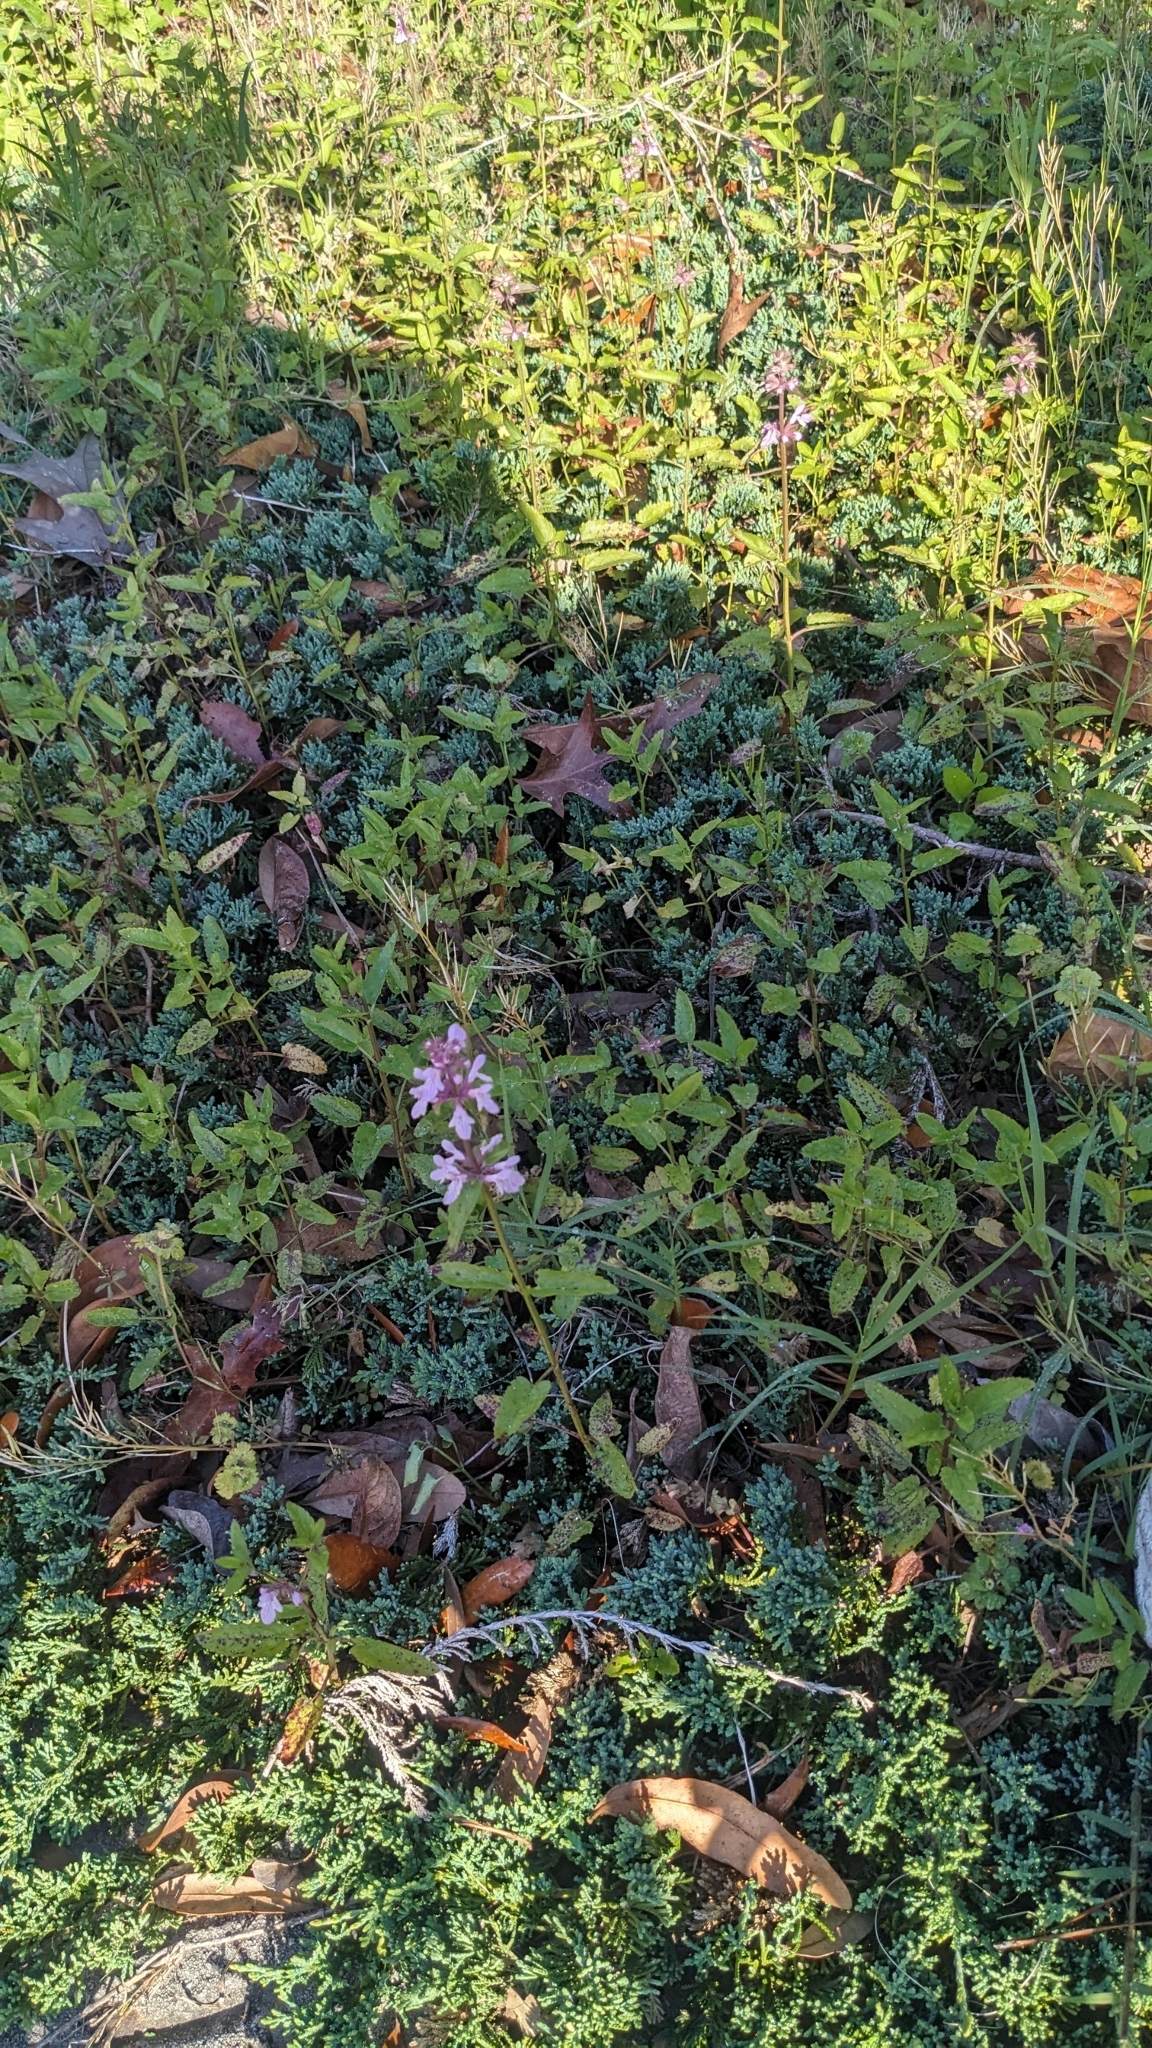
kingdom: Plantae
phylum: Tracheophyta
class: Magnoliopsida
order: Lamiales
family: Lamiaceae
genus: Stachys
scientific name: Stachys floridana
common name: Florida betony
